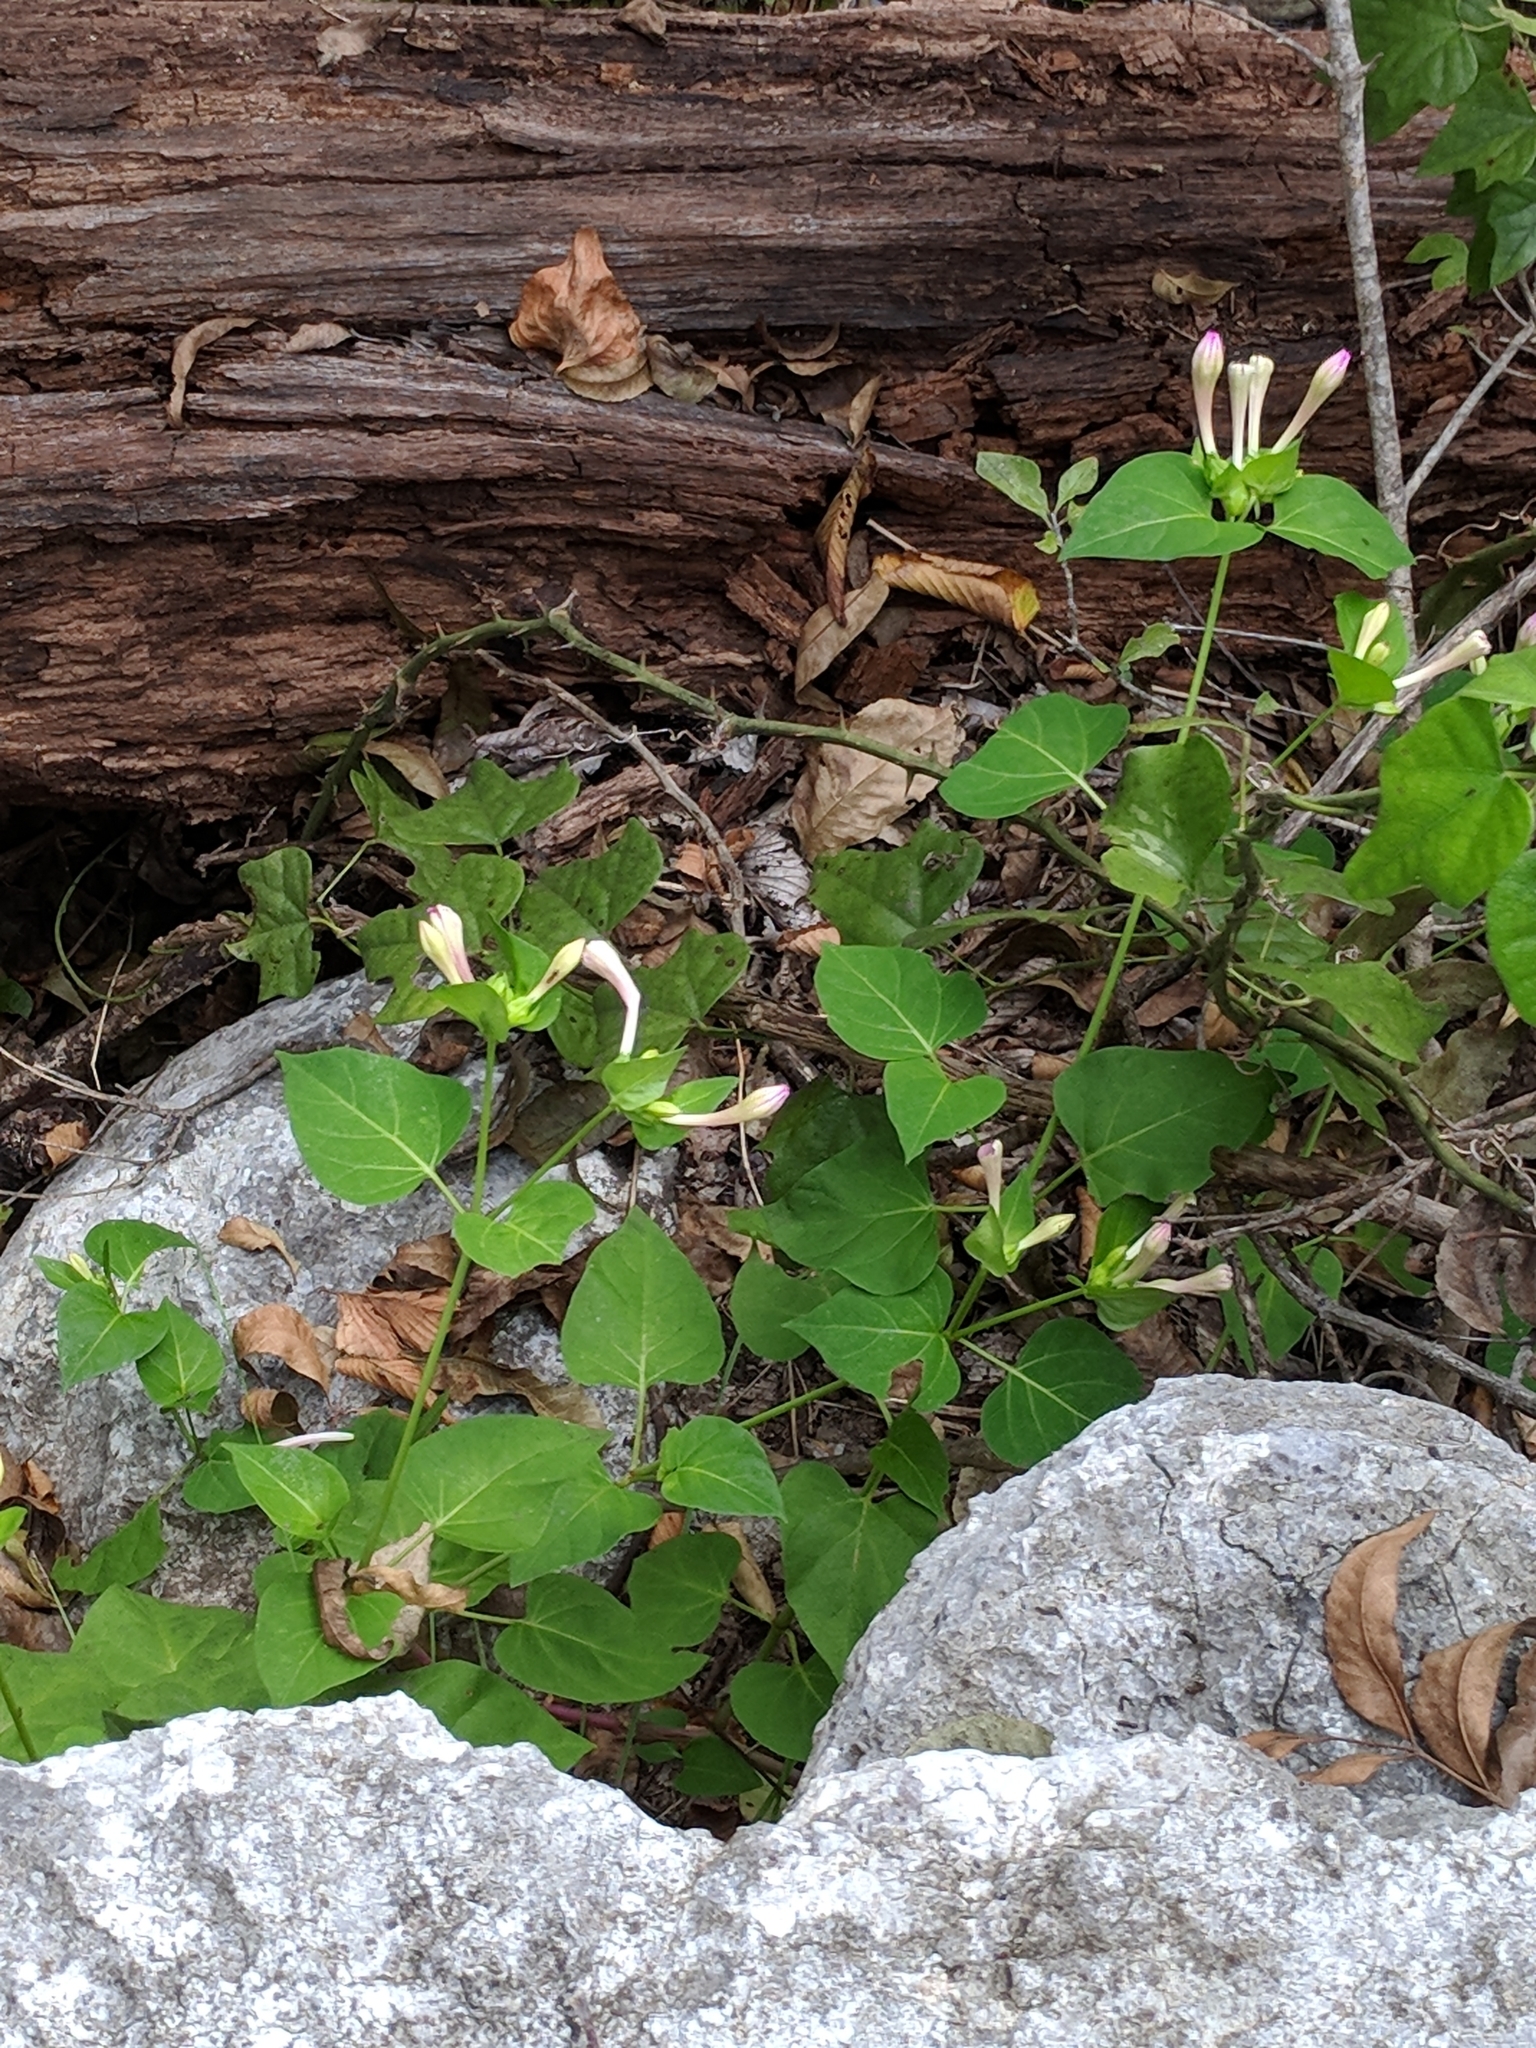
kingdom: Plantae
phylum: Tracheophyta
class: Magnoliopsida
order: Caryophyllales
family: Nyctaginaceae
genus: Mirabilis
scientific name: Mirabilis jalapa
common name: Marvel-of-peru
